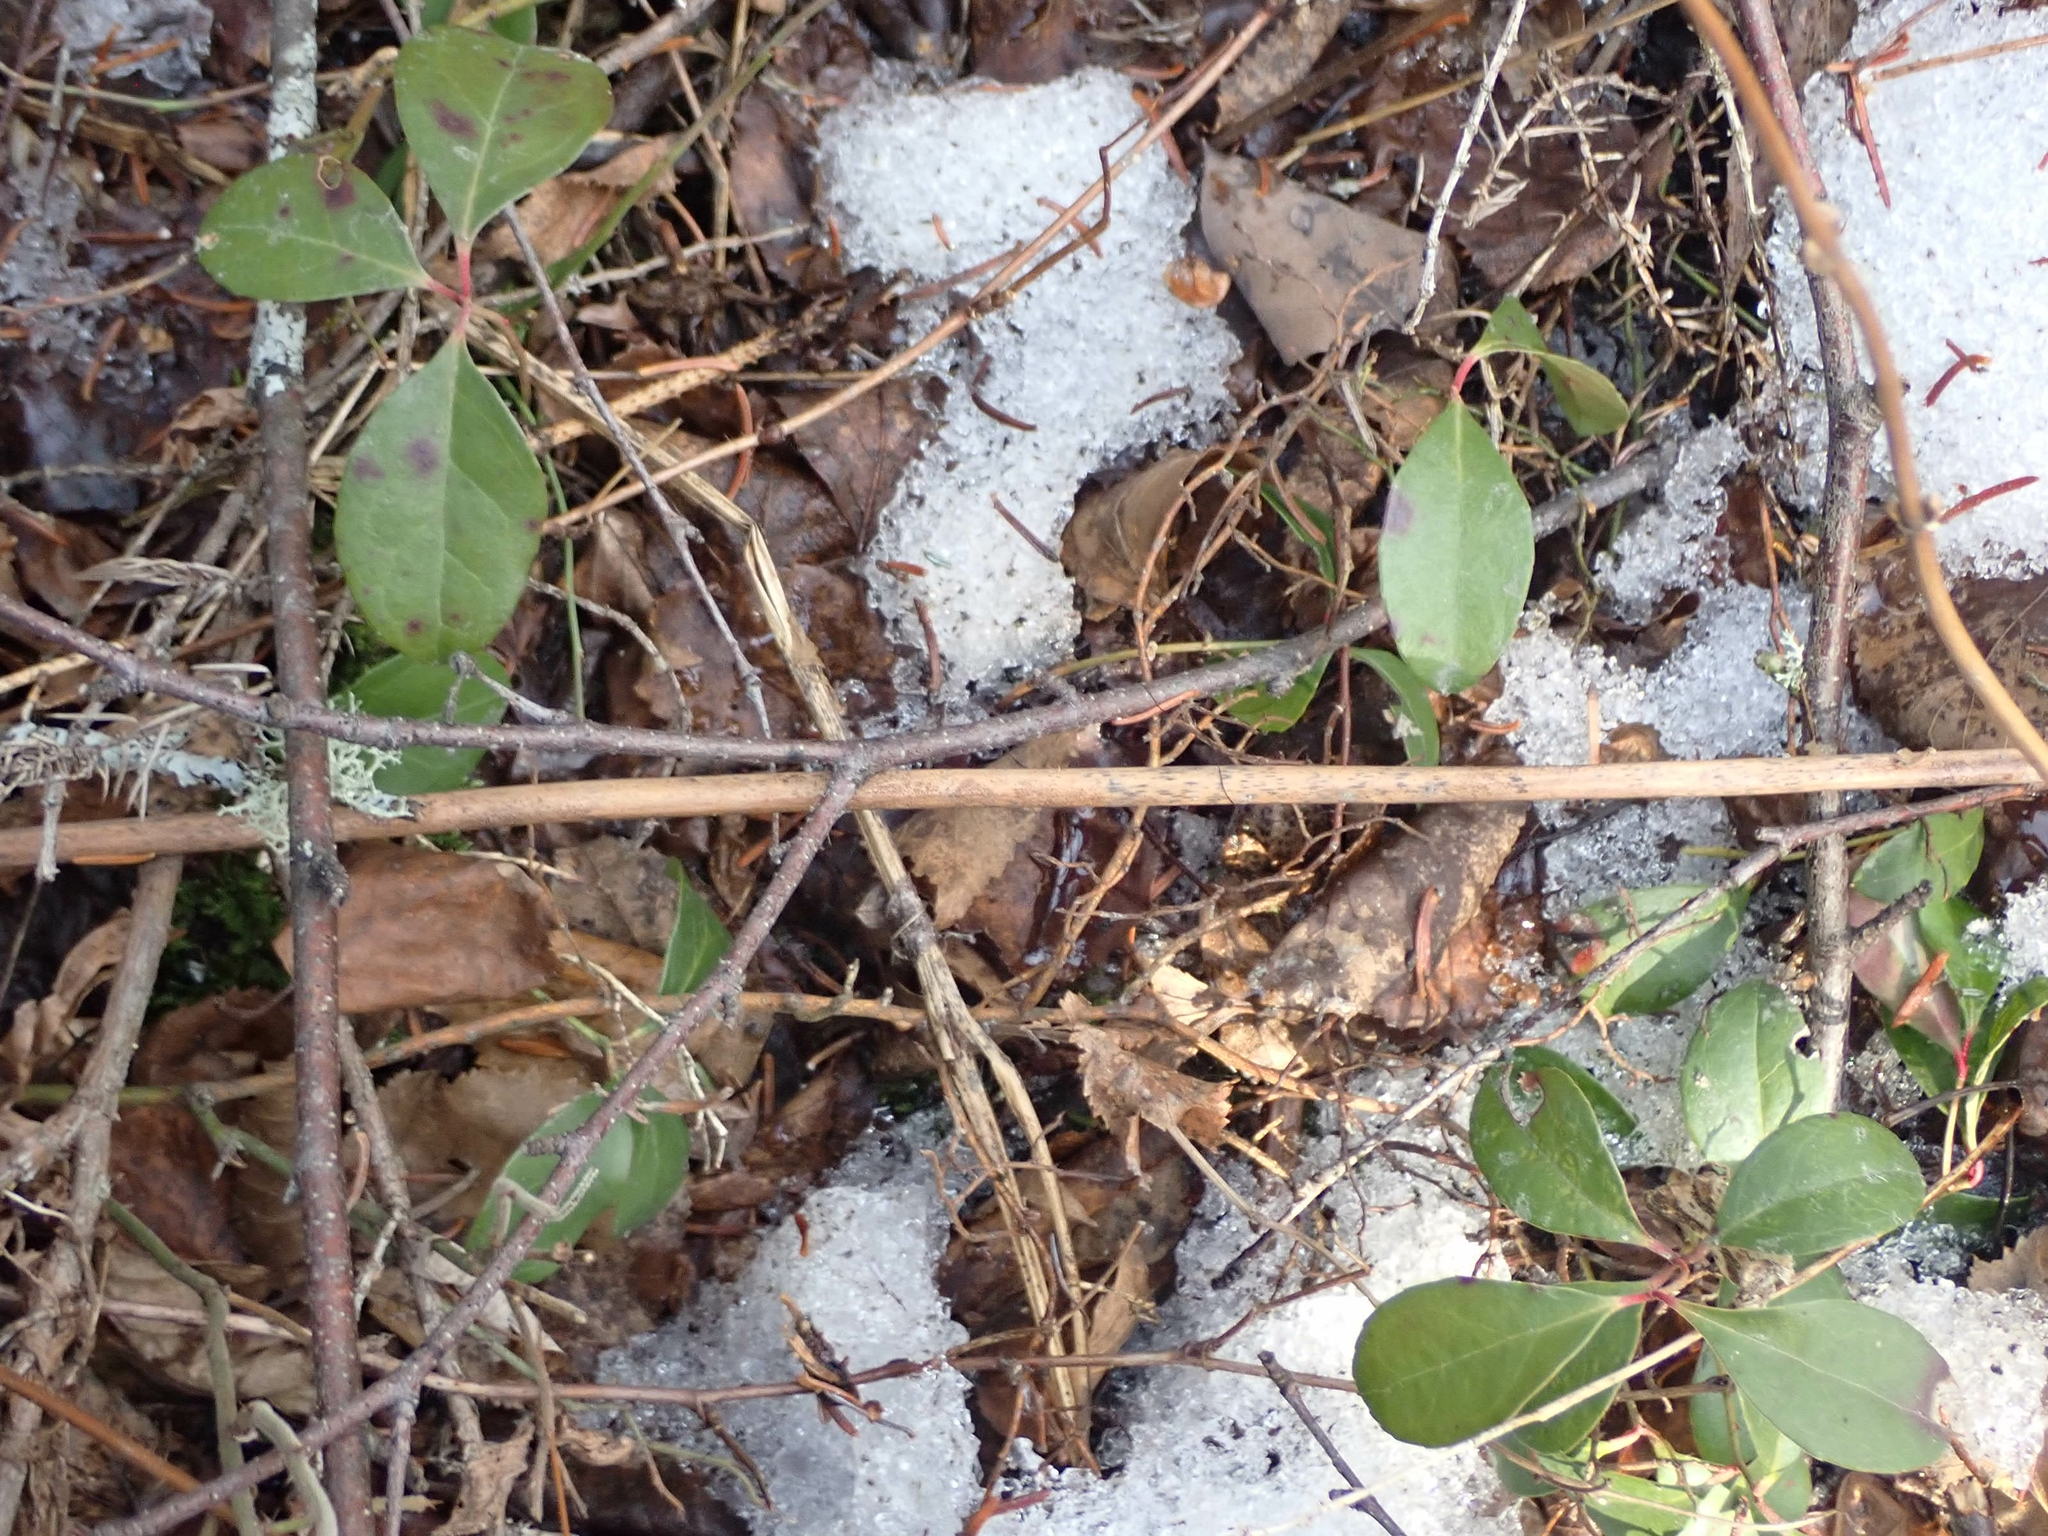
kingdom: Plantae
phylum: Tracheophyta
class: Magnoliopsida
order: Ericales
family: Ericaceae
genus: Gaultheria
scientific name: Gaultheria procumbens
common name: Checkerberry
